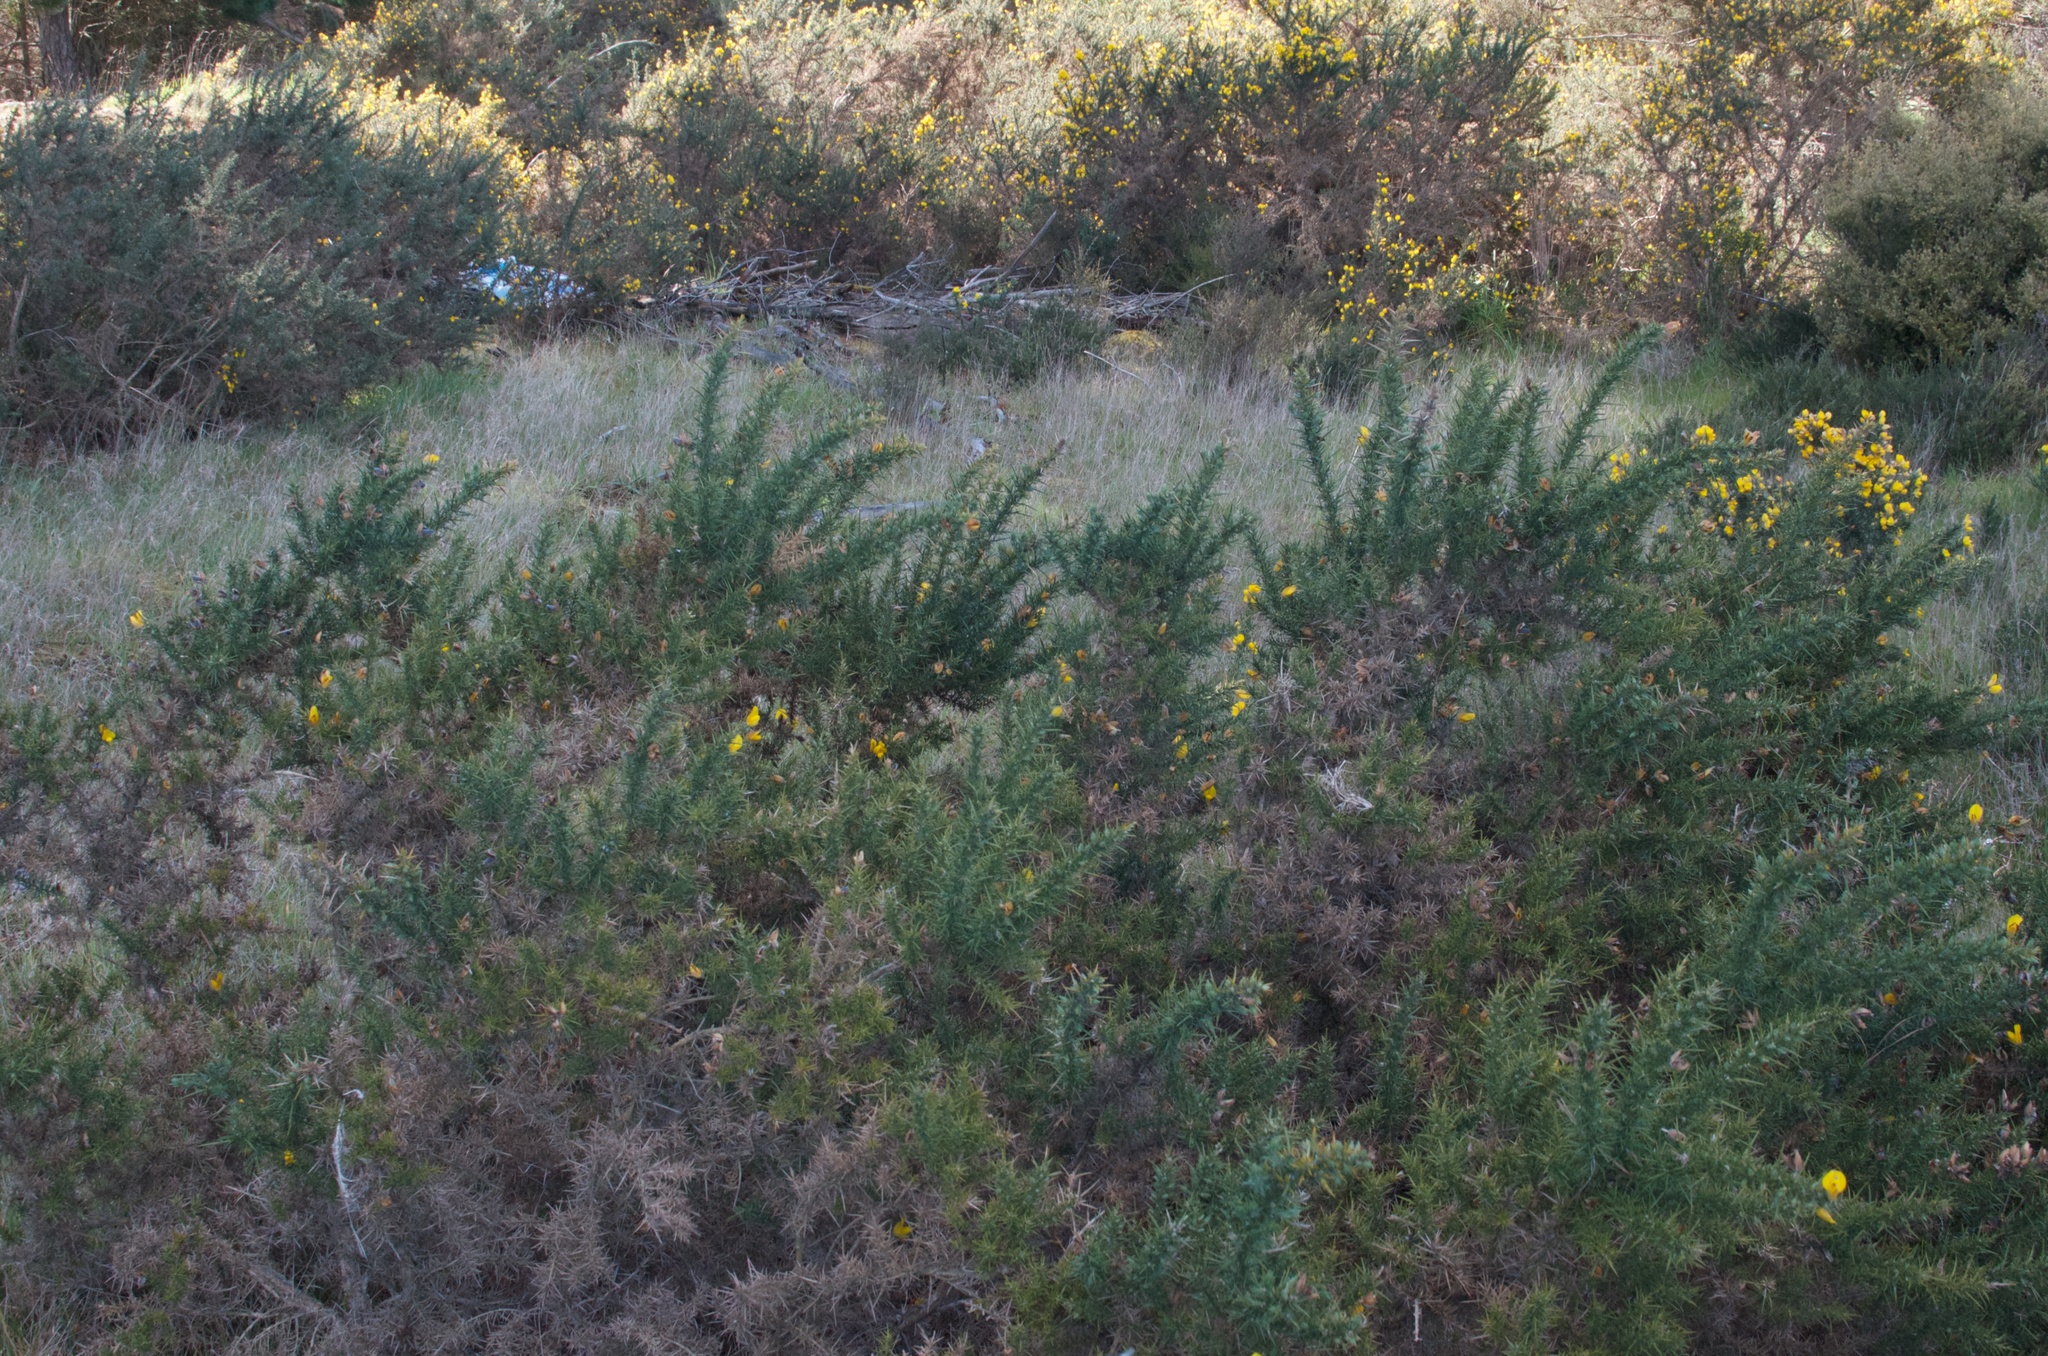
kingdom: Plantae
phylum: Tracheophyta
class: Magnoliopsida
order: Fabales
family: Fabaceae
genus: Ulex
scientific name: Ulex europaeus
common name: Common gorse
